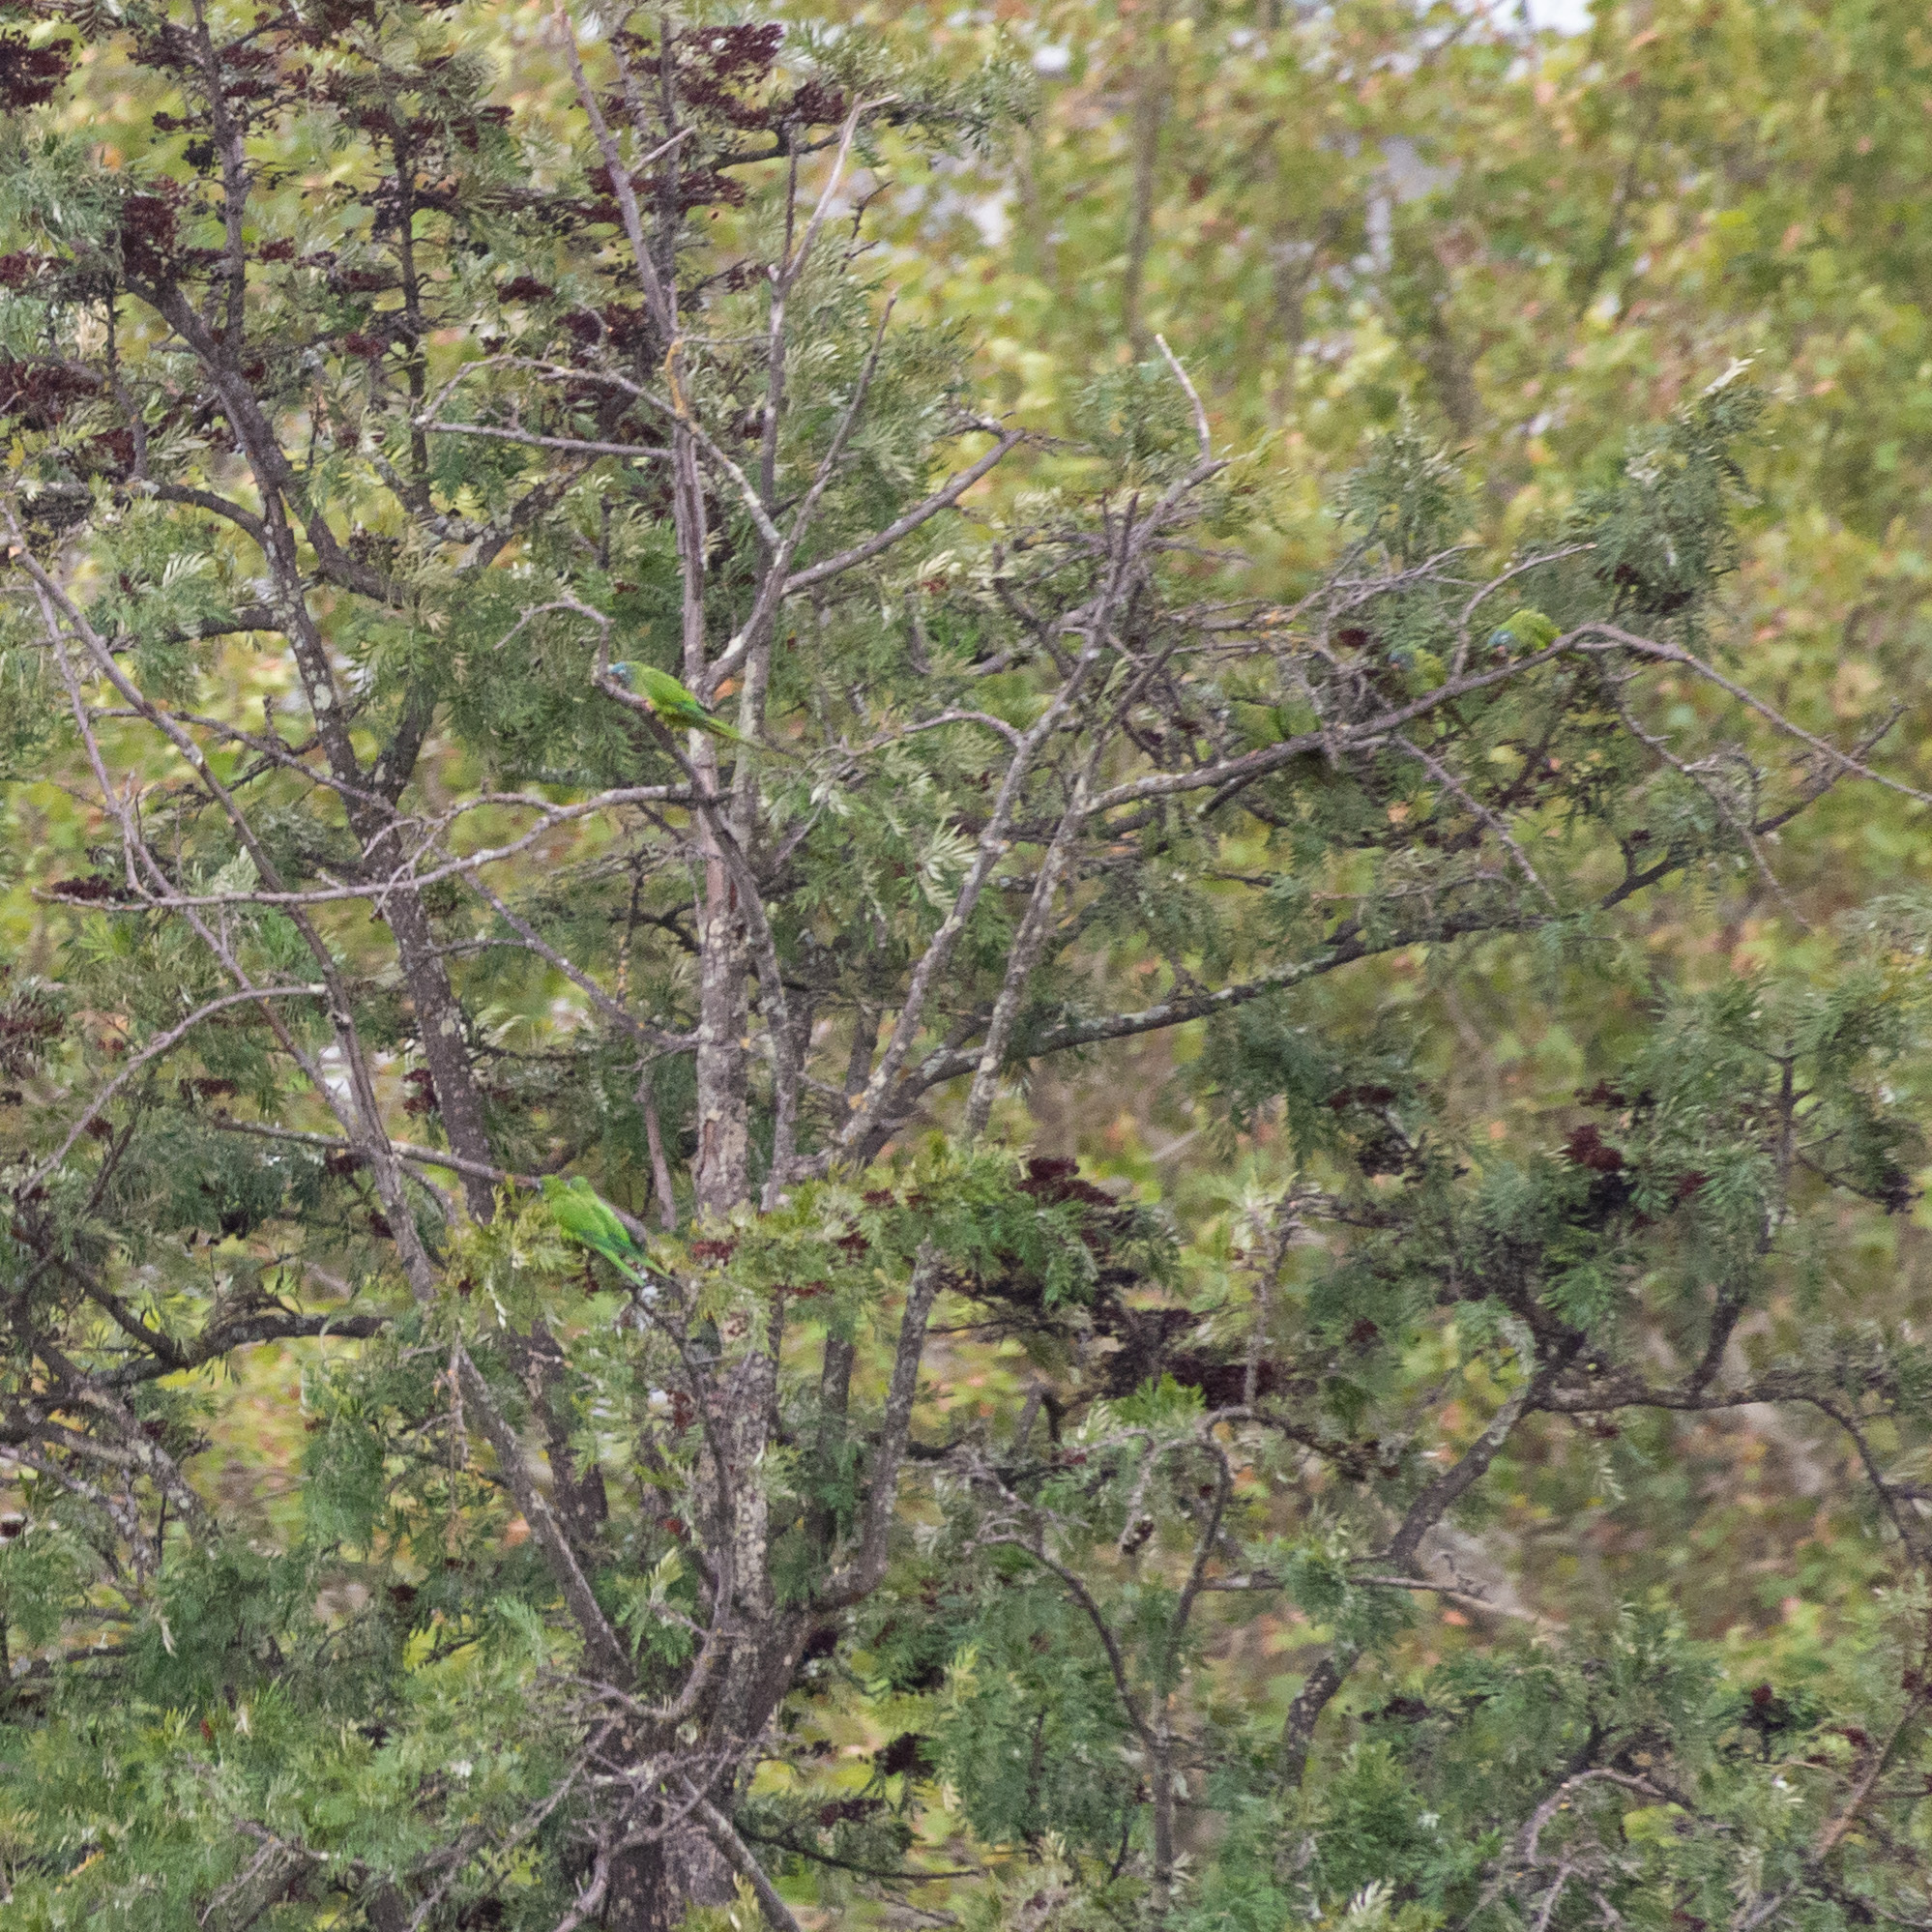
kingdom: Animalia
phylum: Chordata
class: Aves
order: Psittaciformes
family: Psittacidae
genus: Aratinga
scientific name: Aratinga acuticaudata
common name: Blue-crowned parakeet
